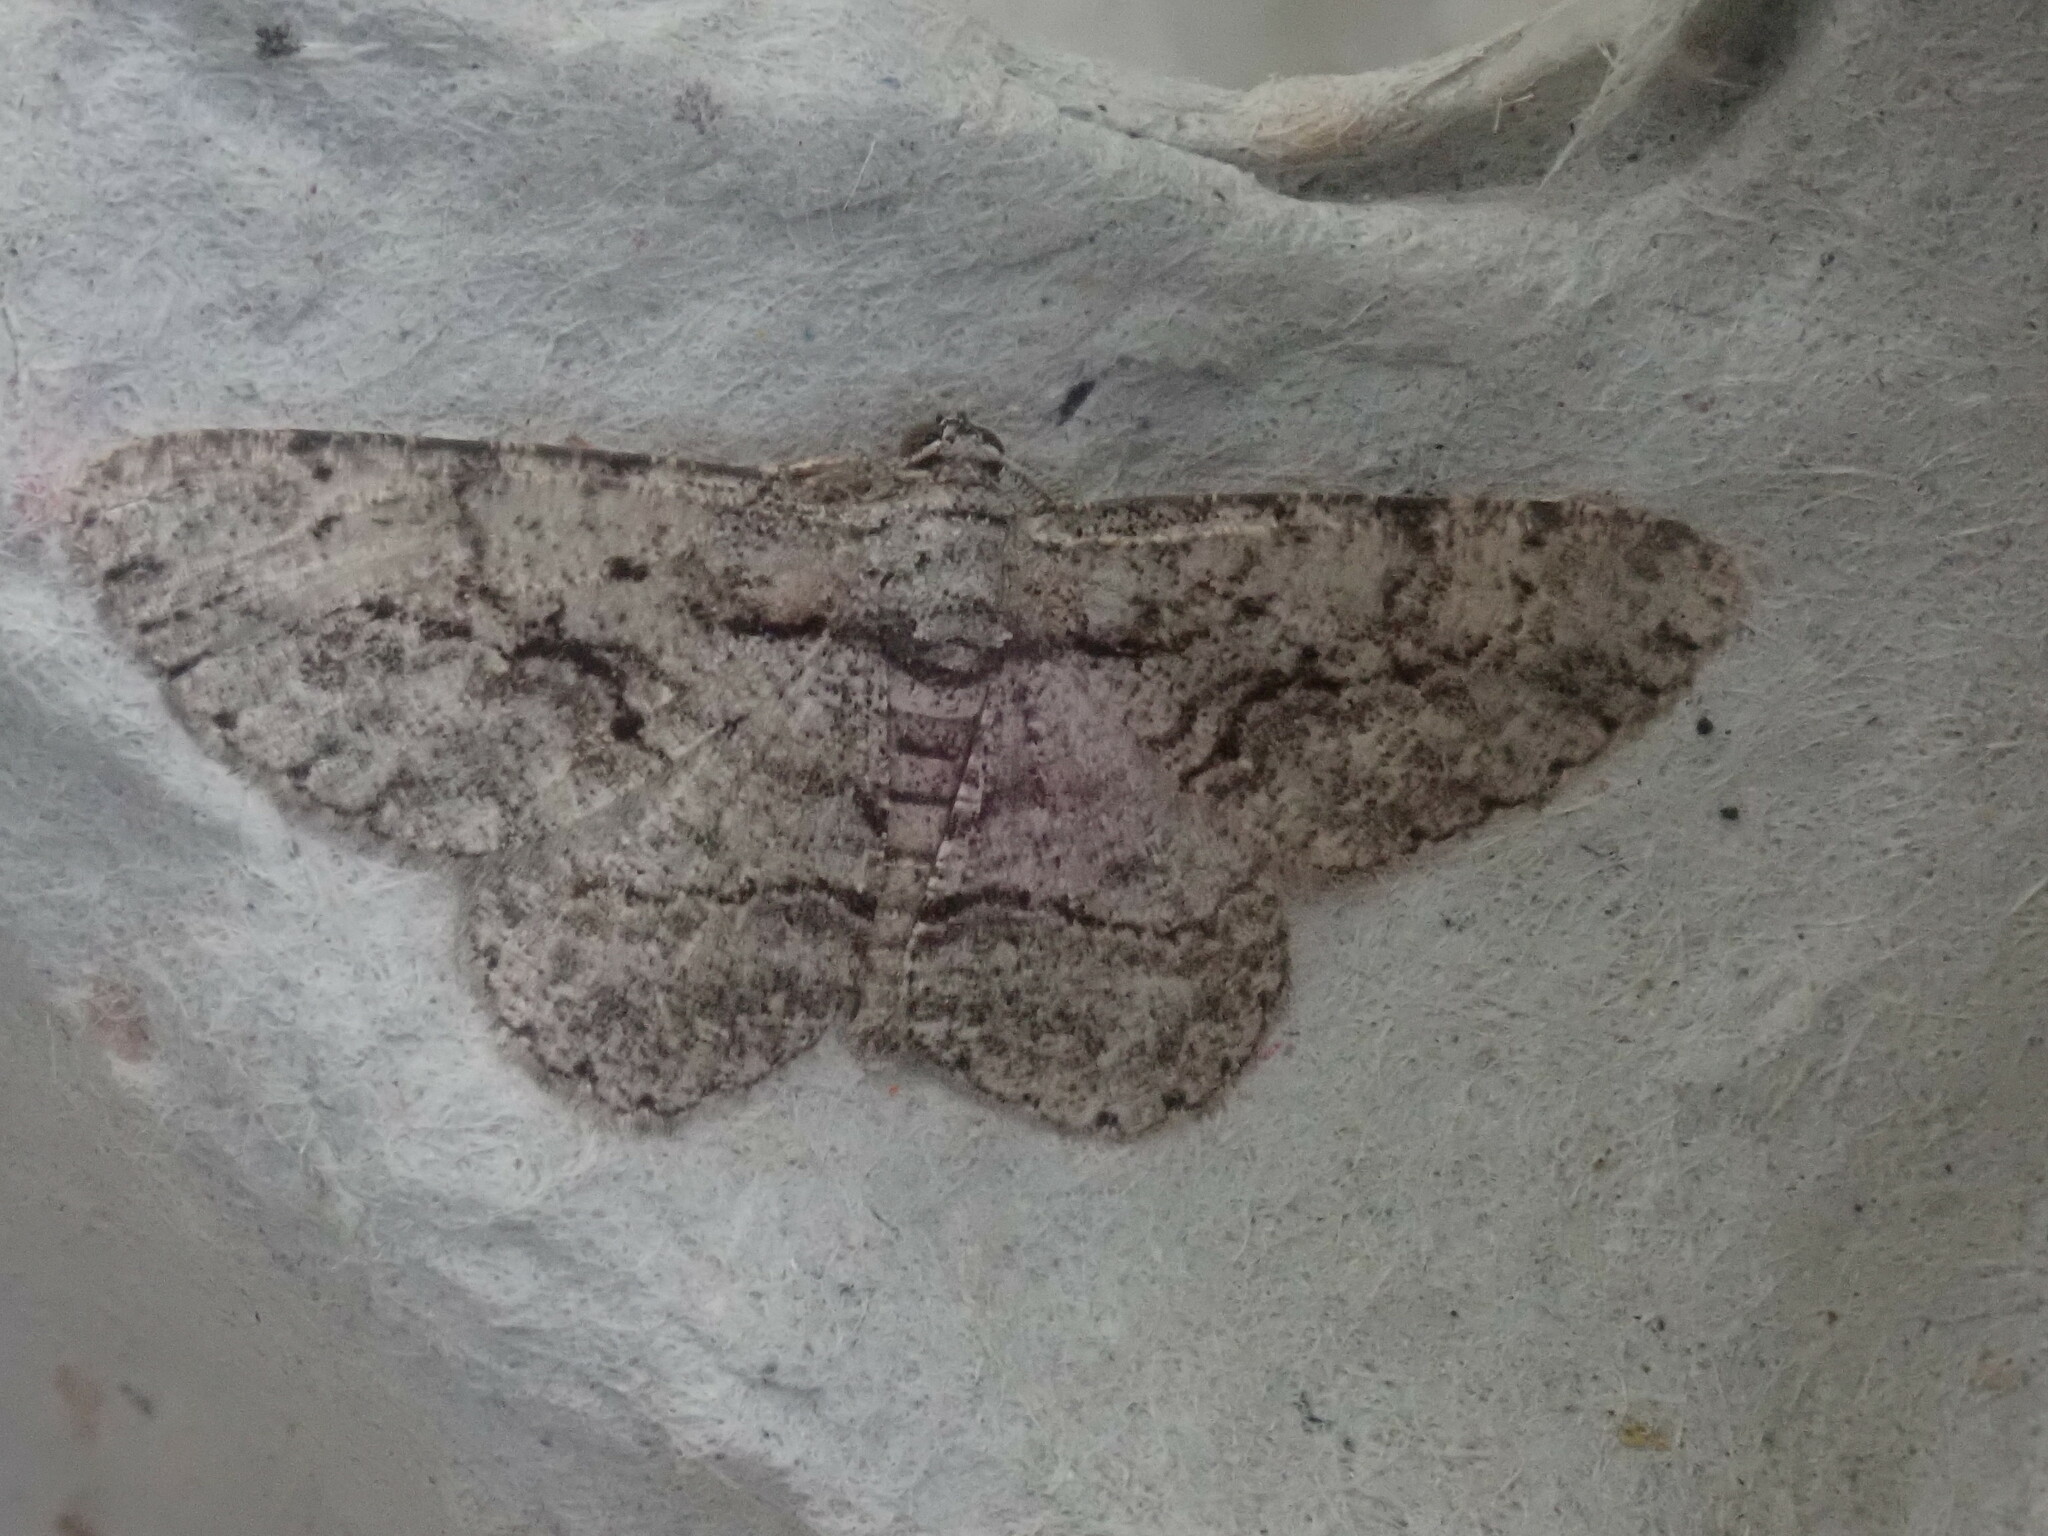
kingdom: Animalia
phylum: Arthropoda
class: Insecta
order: Lepidoptera
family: Geometridae
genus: Anavitrinella
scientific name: Anavitrinella pampinaria
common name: Common gray
